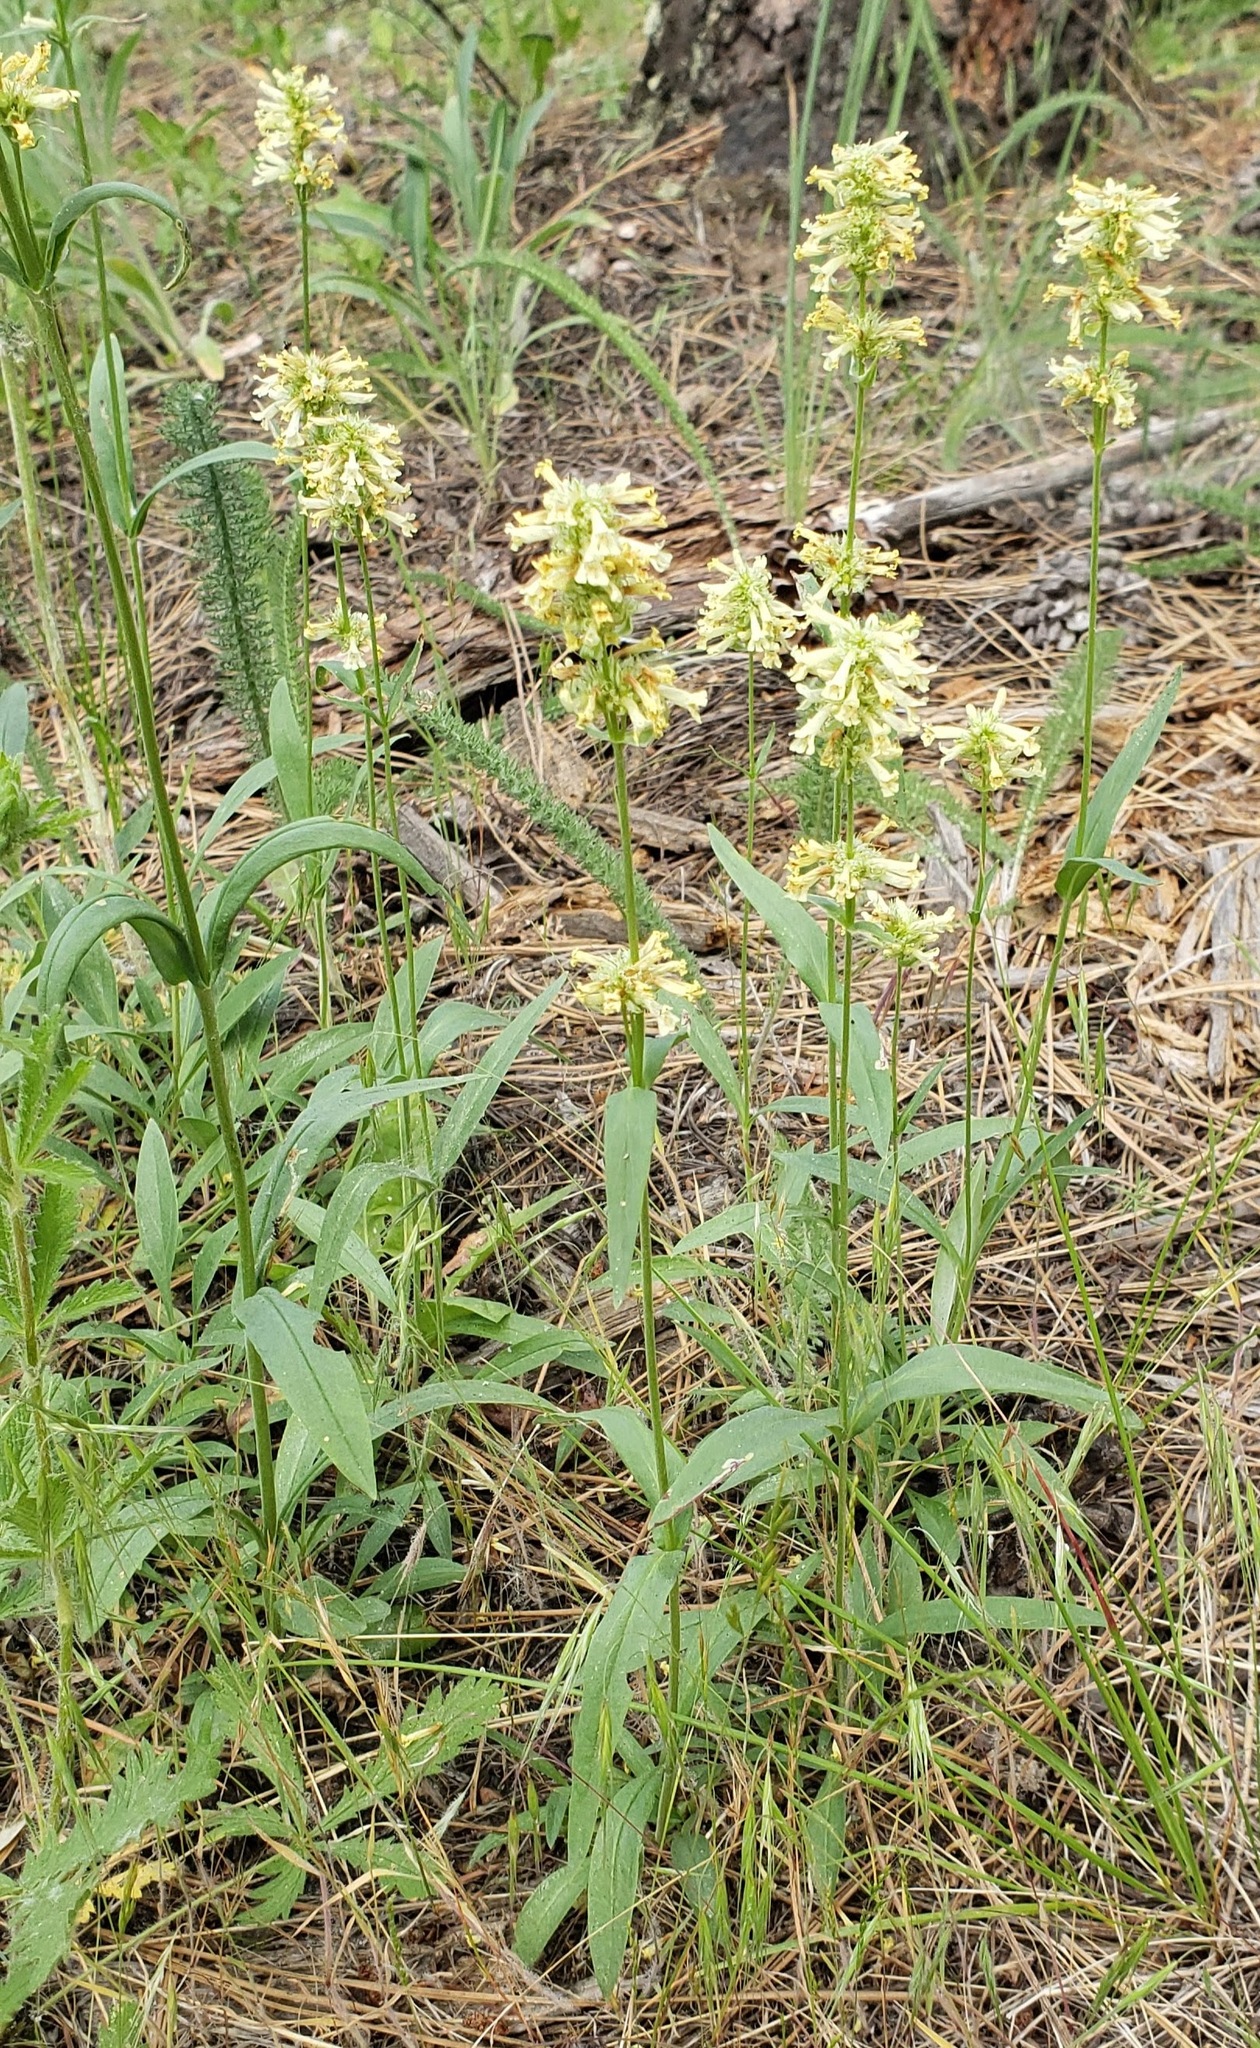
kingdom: Plantae
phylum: Tracheophyta
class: Magnoliopsida
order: Lamiales
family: Plantaginaceae
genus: Penstemon
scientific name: Penstemon confertus
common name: Lesser yellow beardtongue
